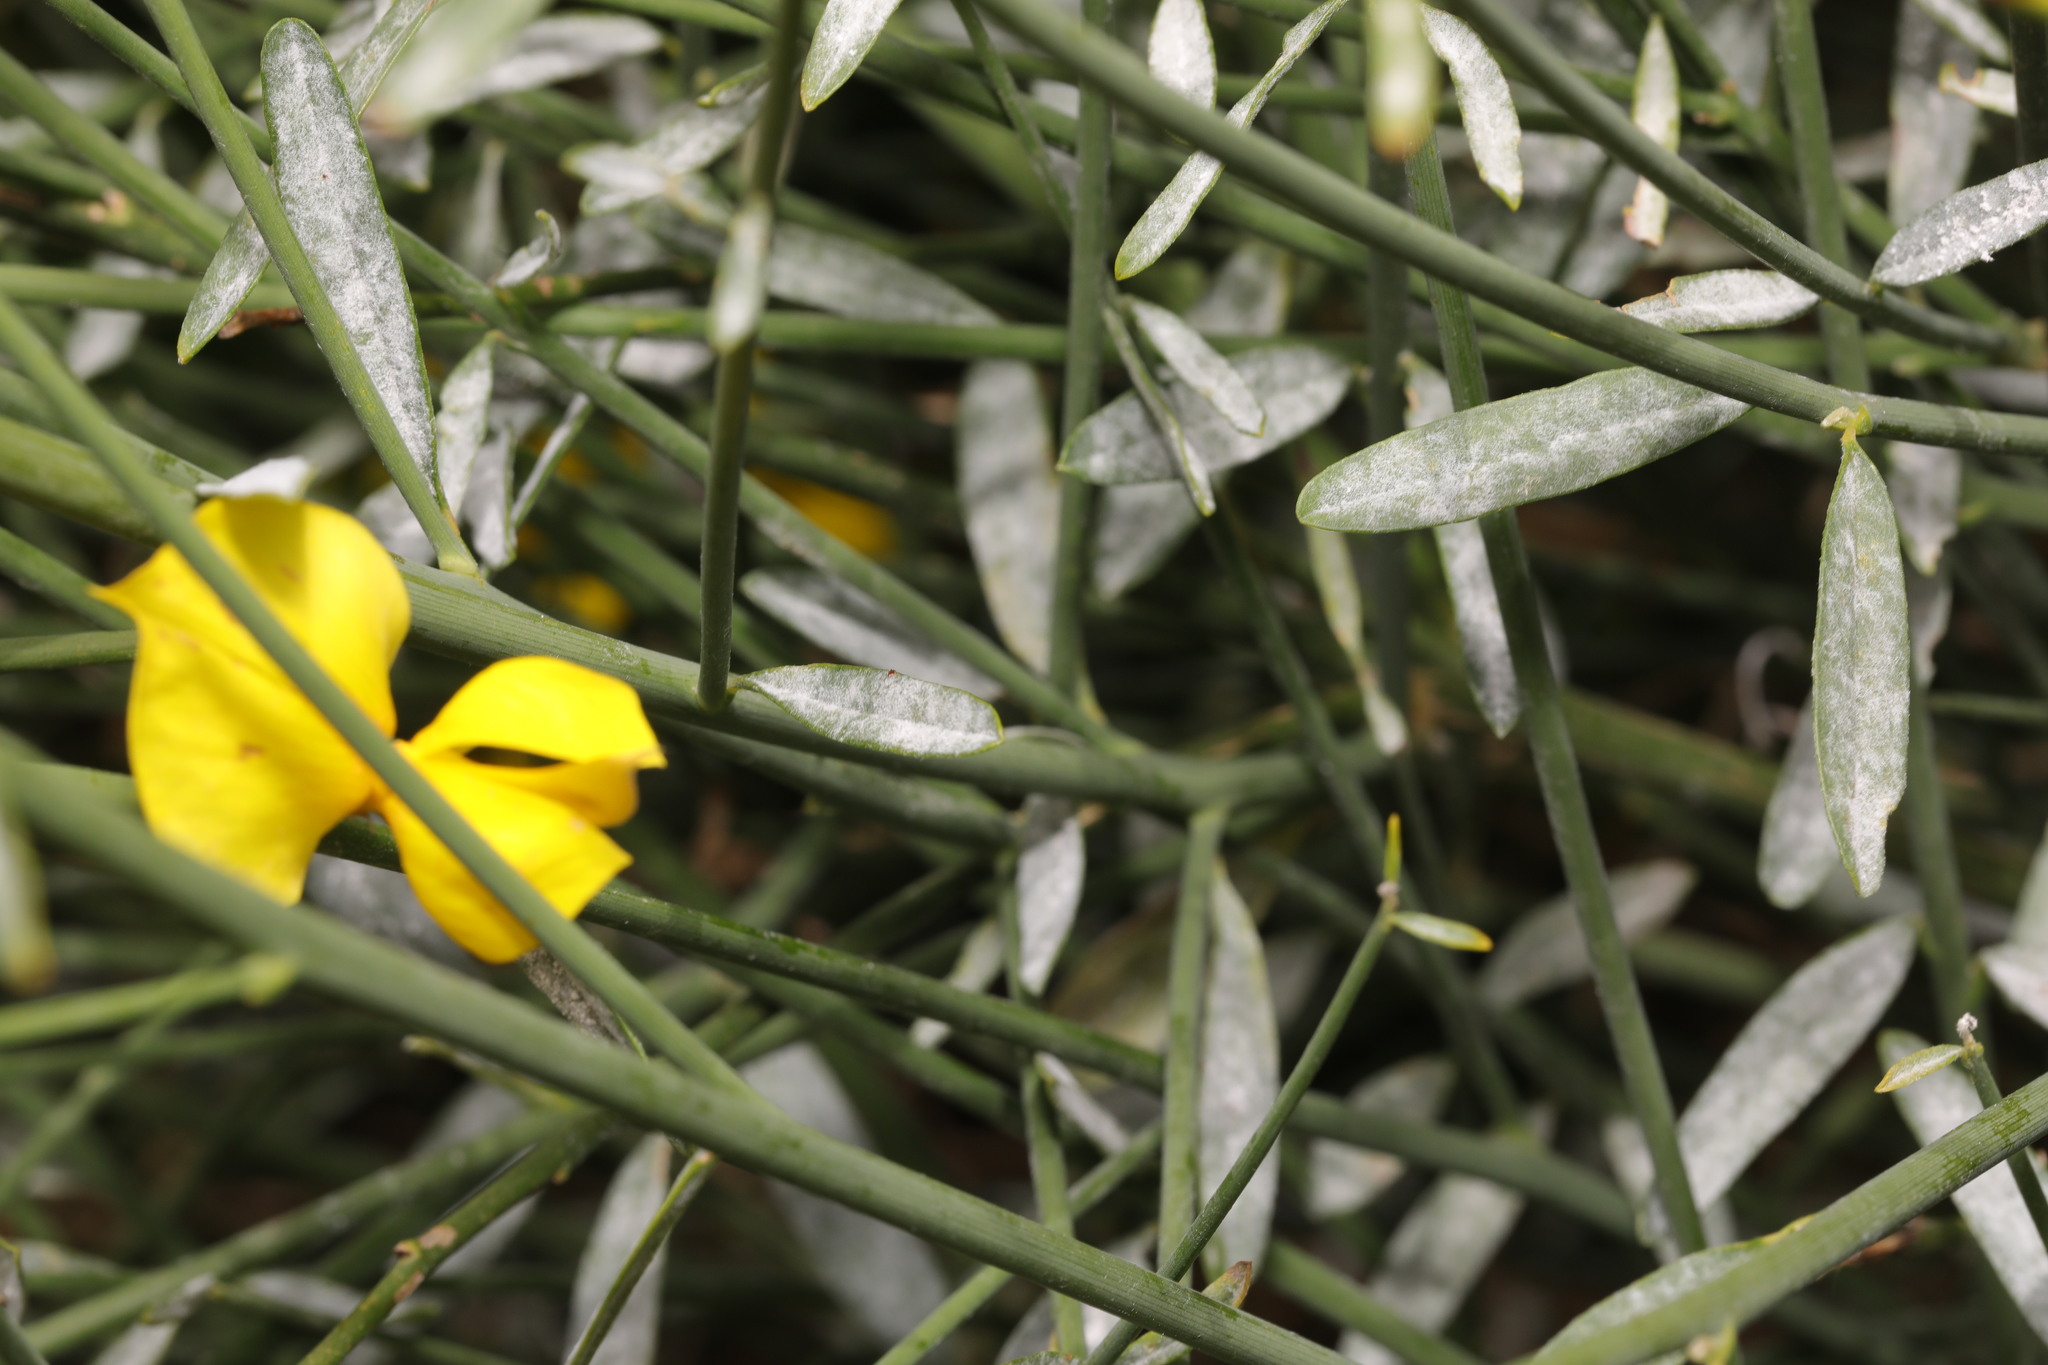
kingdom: Fungi
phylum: Ascomycota
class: Leotiomycetes
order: Helotiales
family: Erysiphaceae
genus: Erysiphe
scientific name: Erysiphe rayssiae
